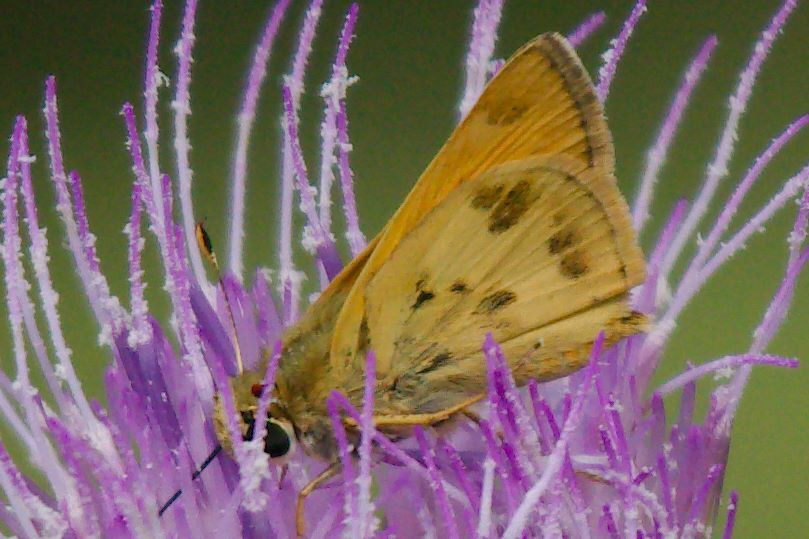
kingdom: Animalia
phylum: Arthropoda
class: Insecta
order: Lepidoptera
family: Hesperiidae
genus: Polites
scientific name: Polites vibex
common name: Whirlabout
